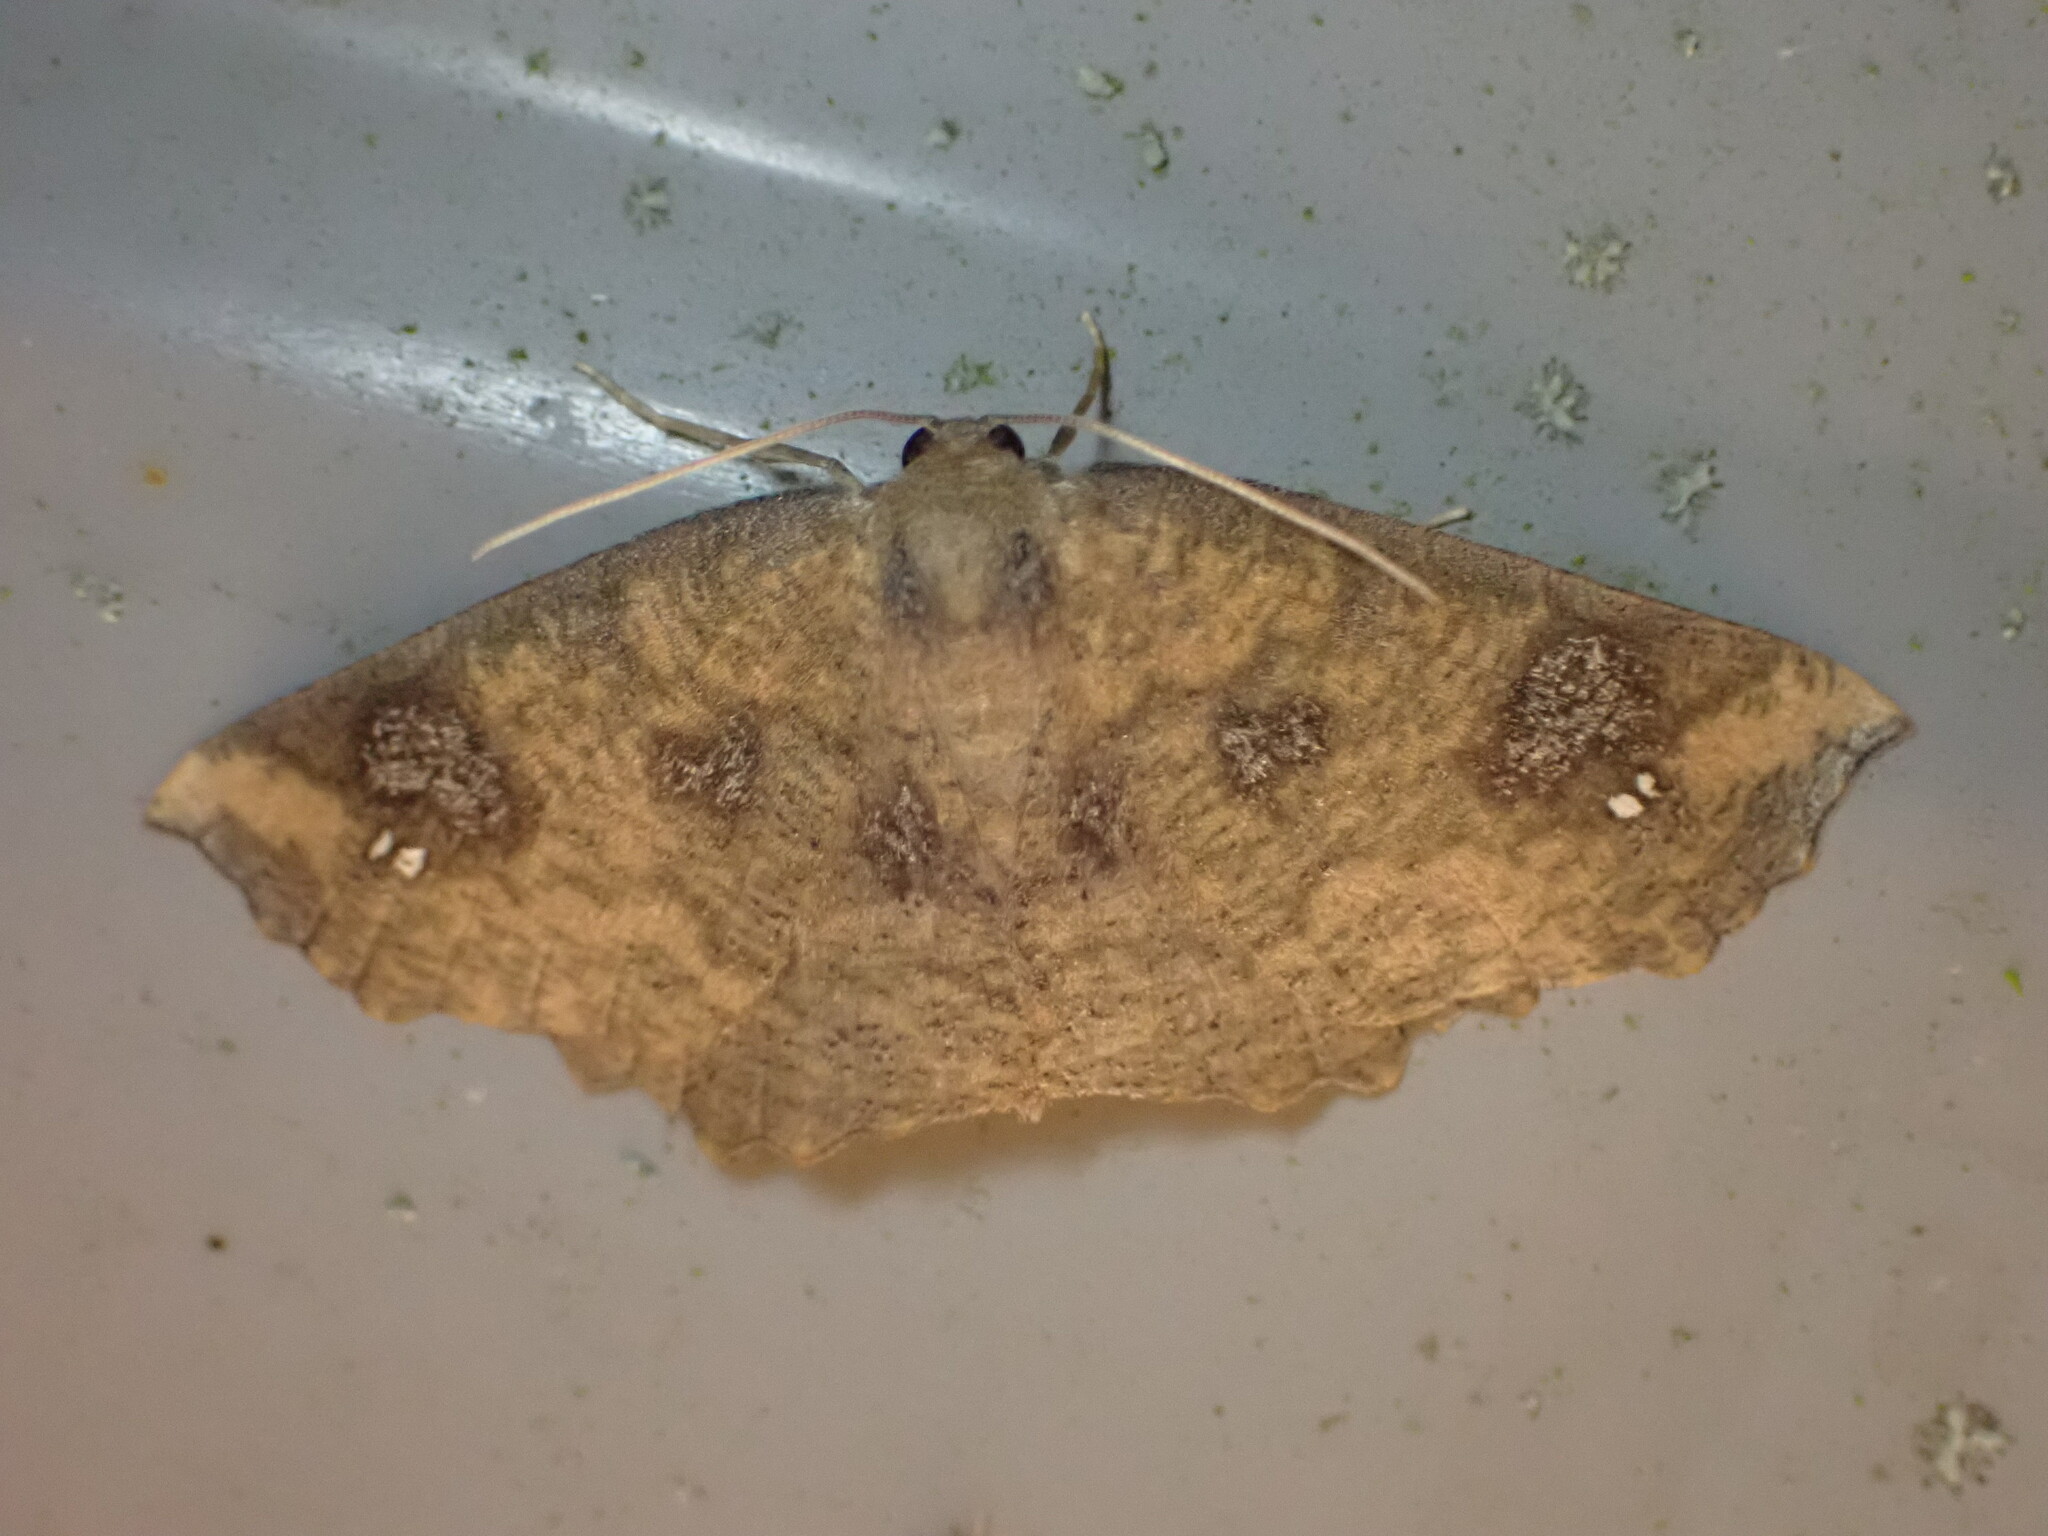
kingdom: Animalia
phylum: Arthropoda
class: Insecta
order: Lepidoptera
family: Geometridae
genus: Xyridacma
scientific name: Xyridacma ustaria
